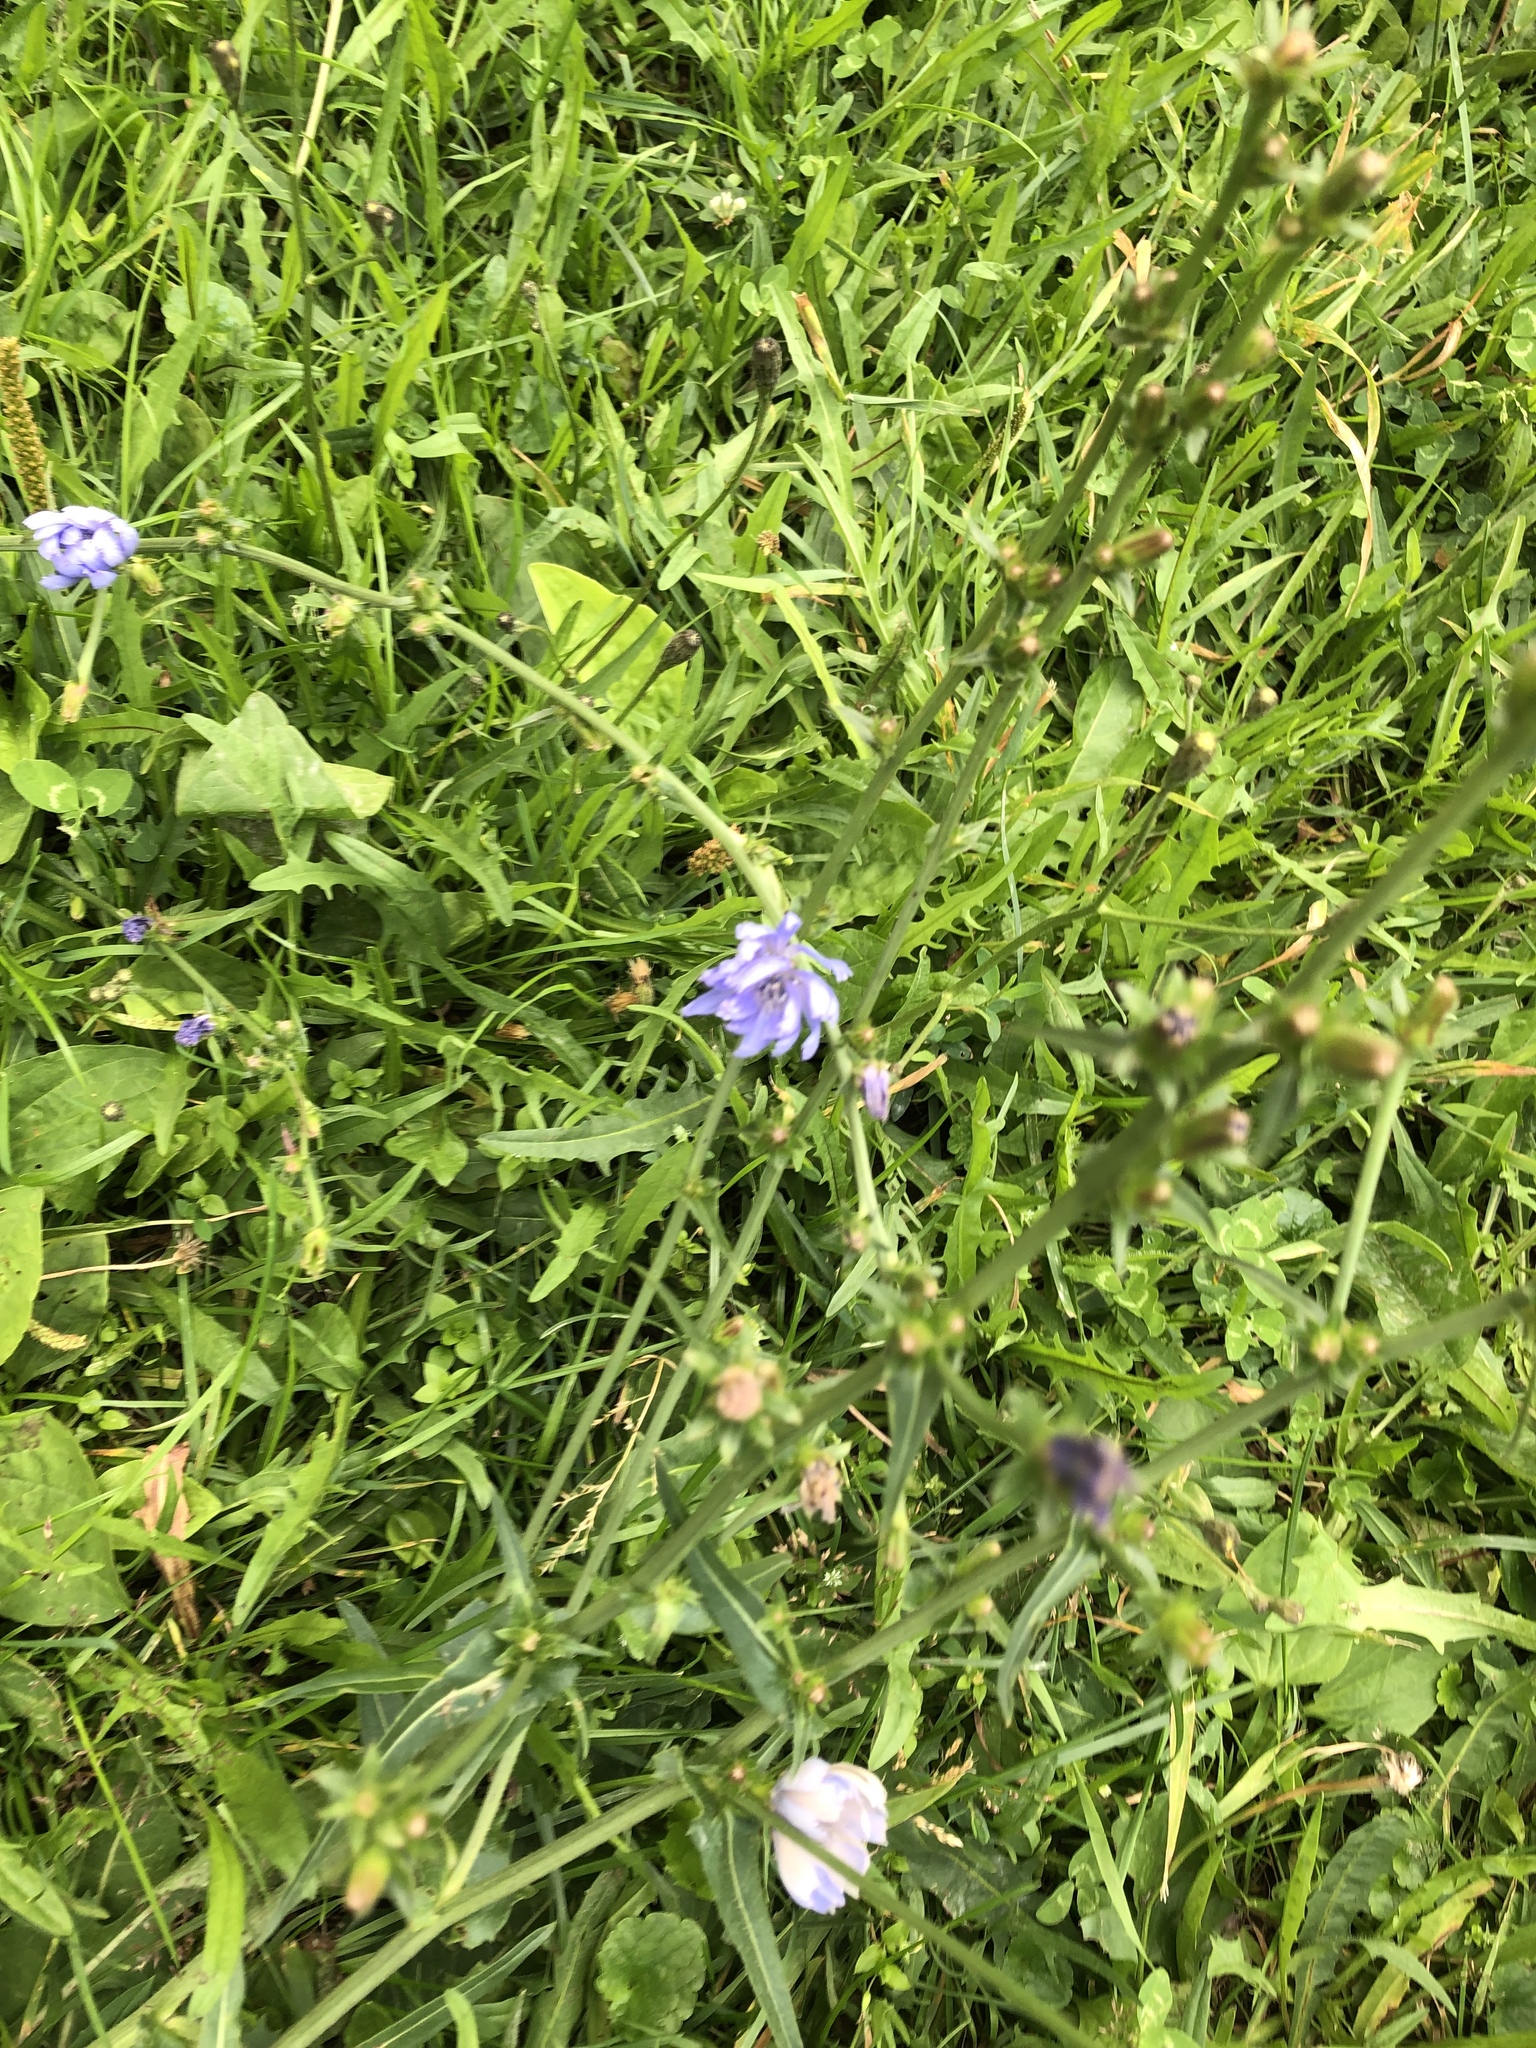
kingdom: Plantae
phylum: Tracheophyta
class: Magnoliopsida
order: Asterales
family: Asteraceae
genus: Cichorium
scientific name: Cichorium intybus
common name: Chicory
